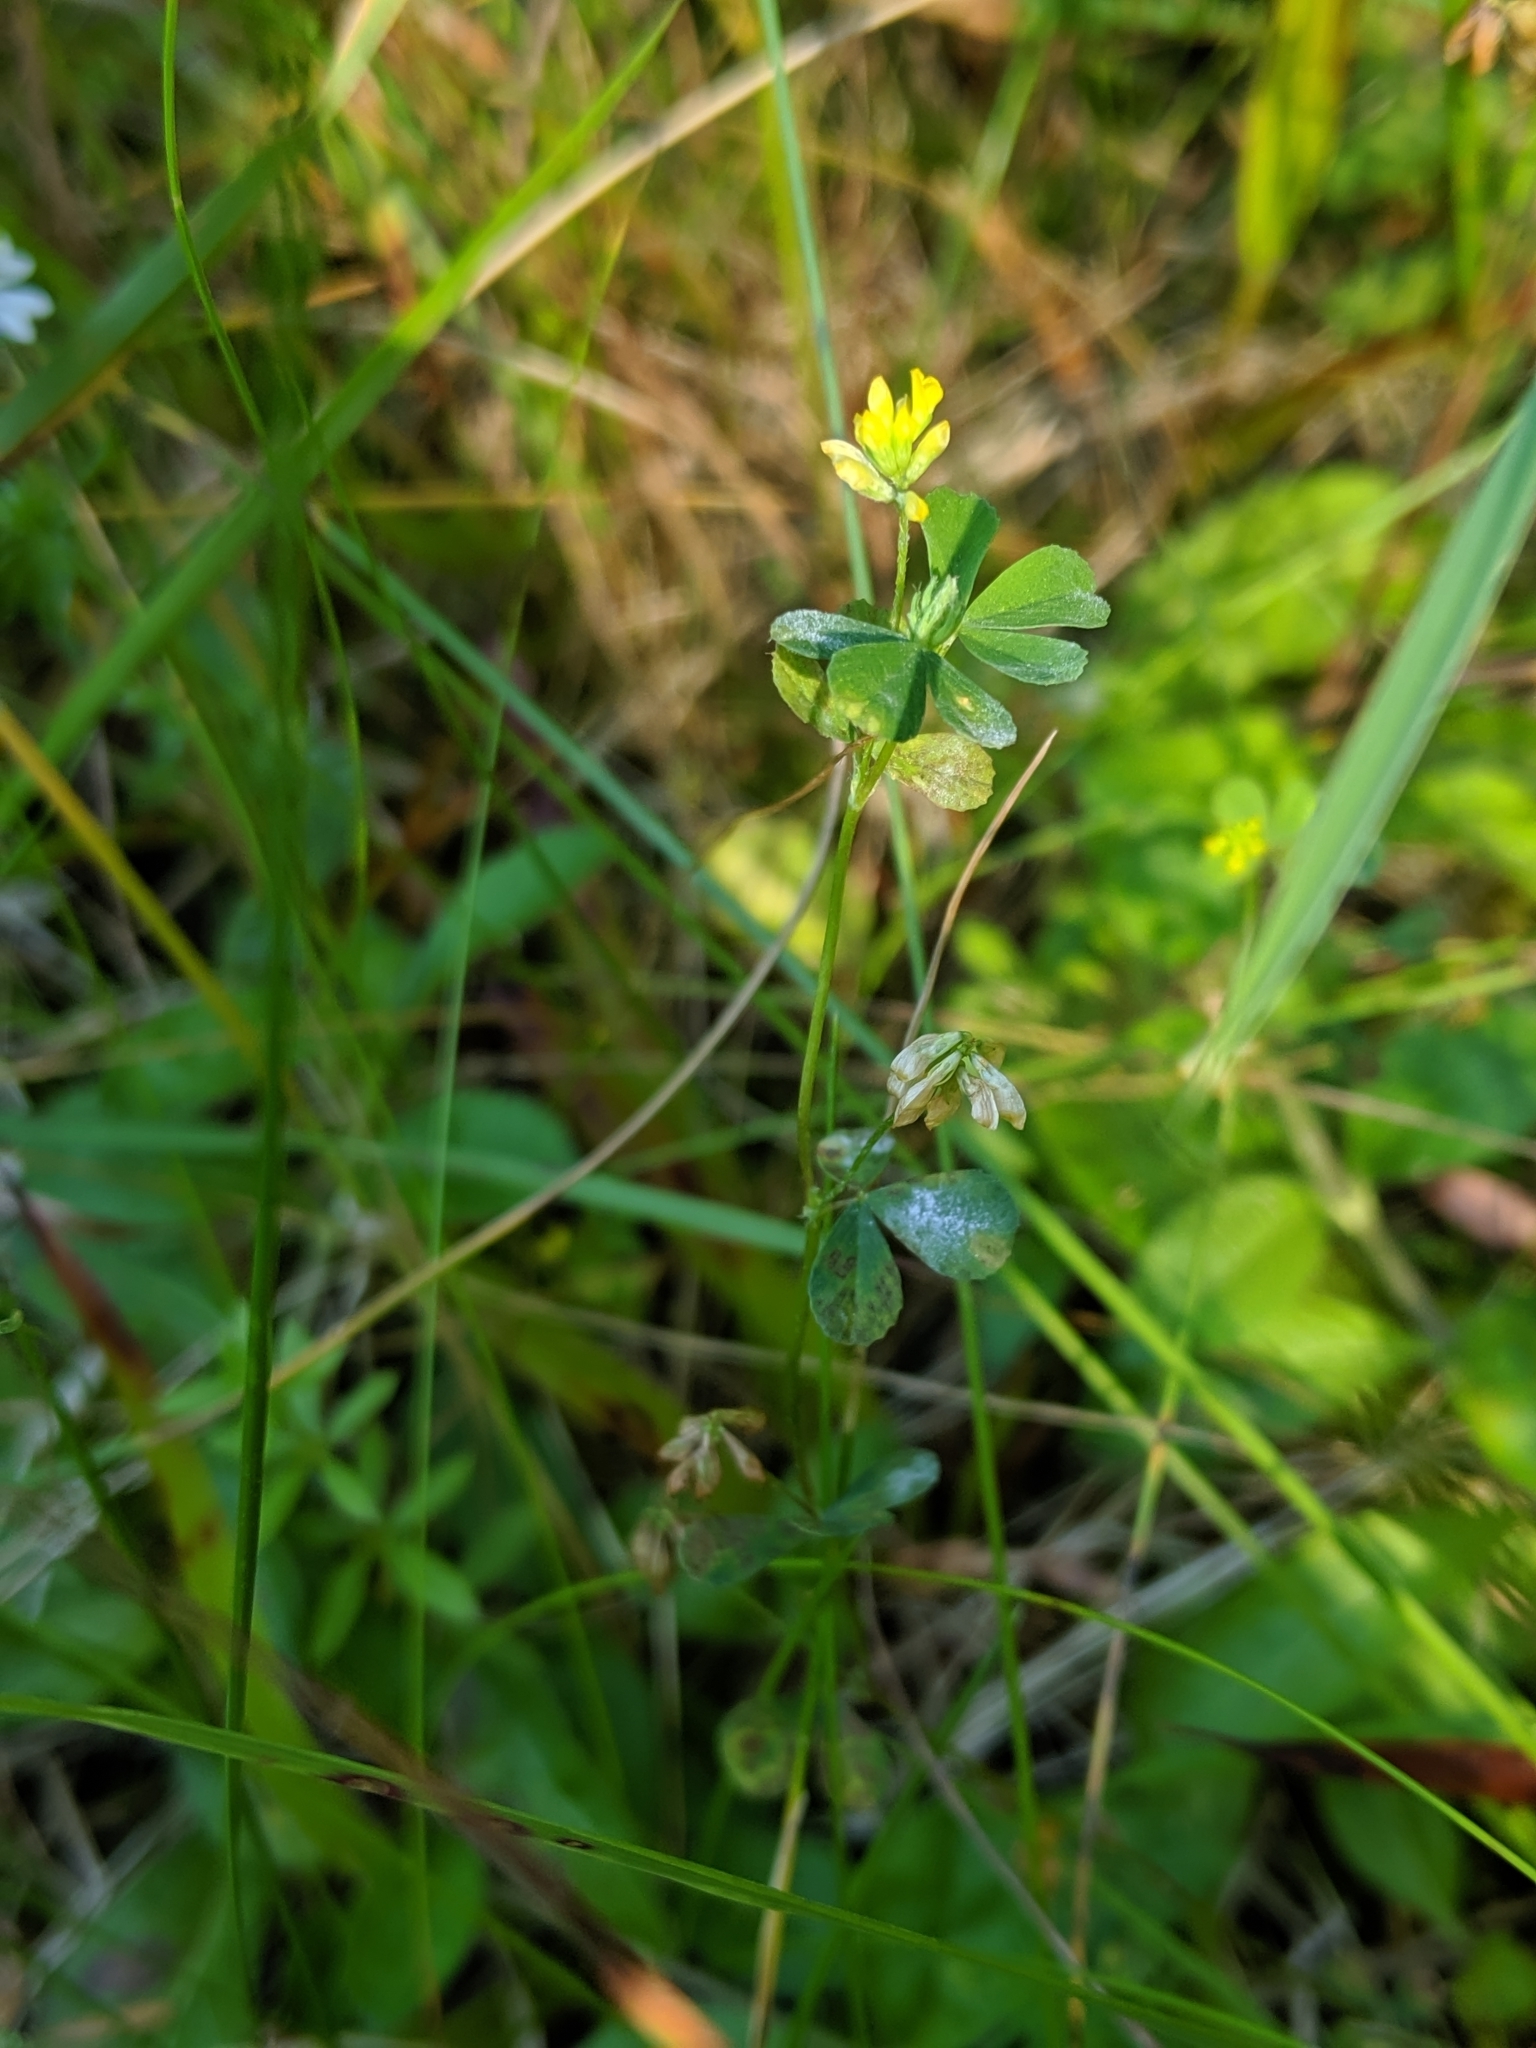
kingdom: Plantae
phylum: Tracheophyta
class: Magnoliopsida
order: Fabales
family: Fabaceae
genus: Trifolium
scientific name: Trifolium dubium
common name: Suckling clover
